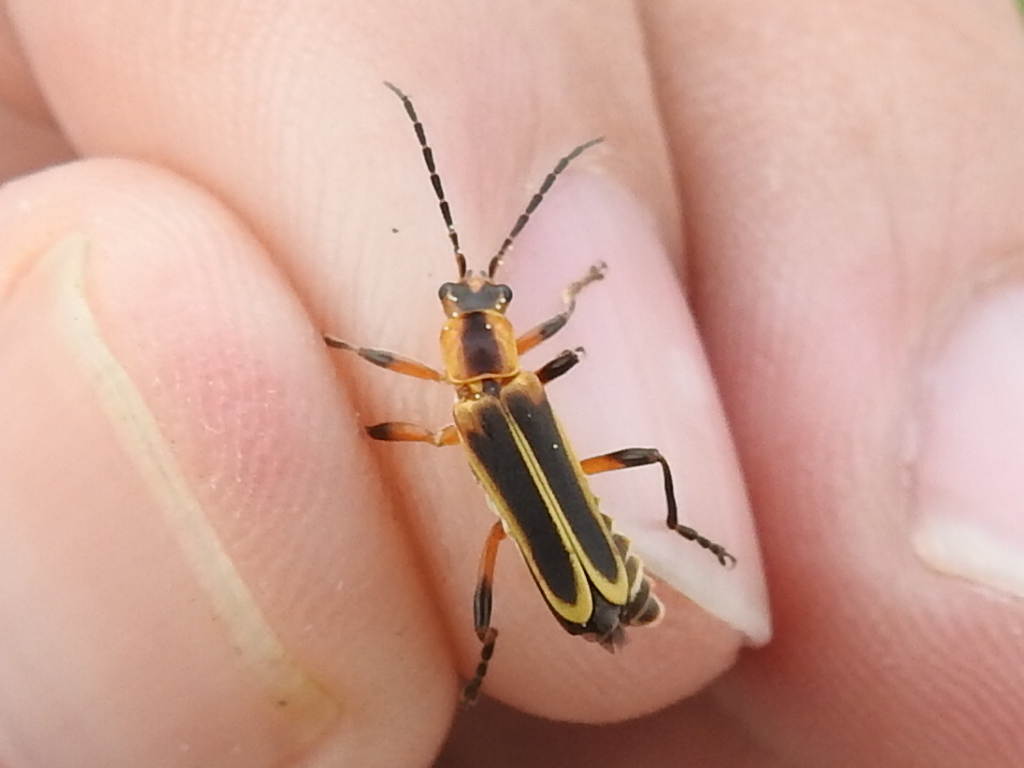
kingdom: Animalia
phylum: Arthropoda
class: Insecta
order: Coleoptera
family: Cantharidae
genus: Chauliognathus
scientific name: Chauliognathus marginatus
